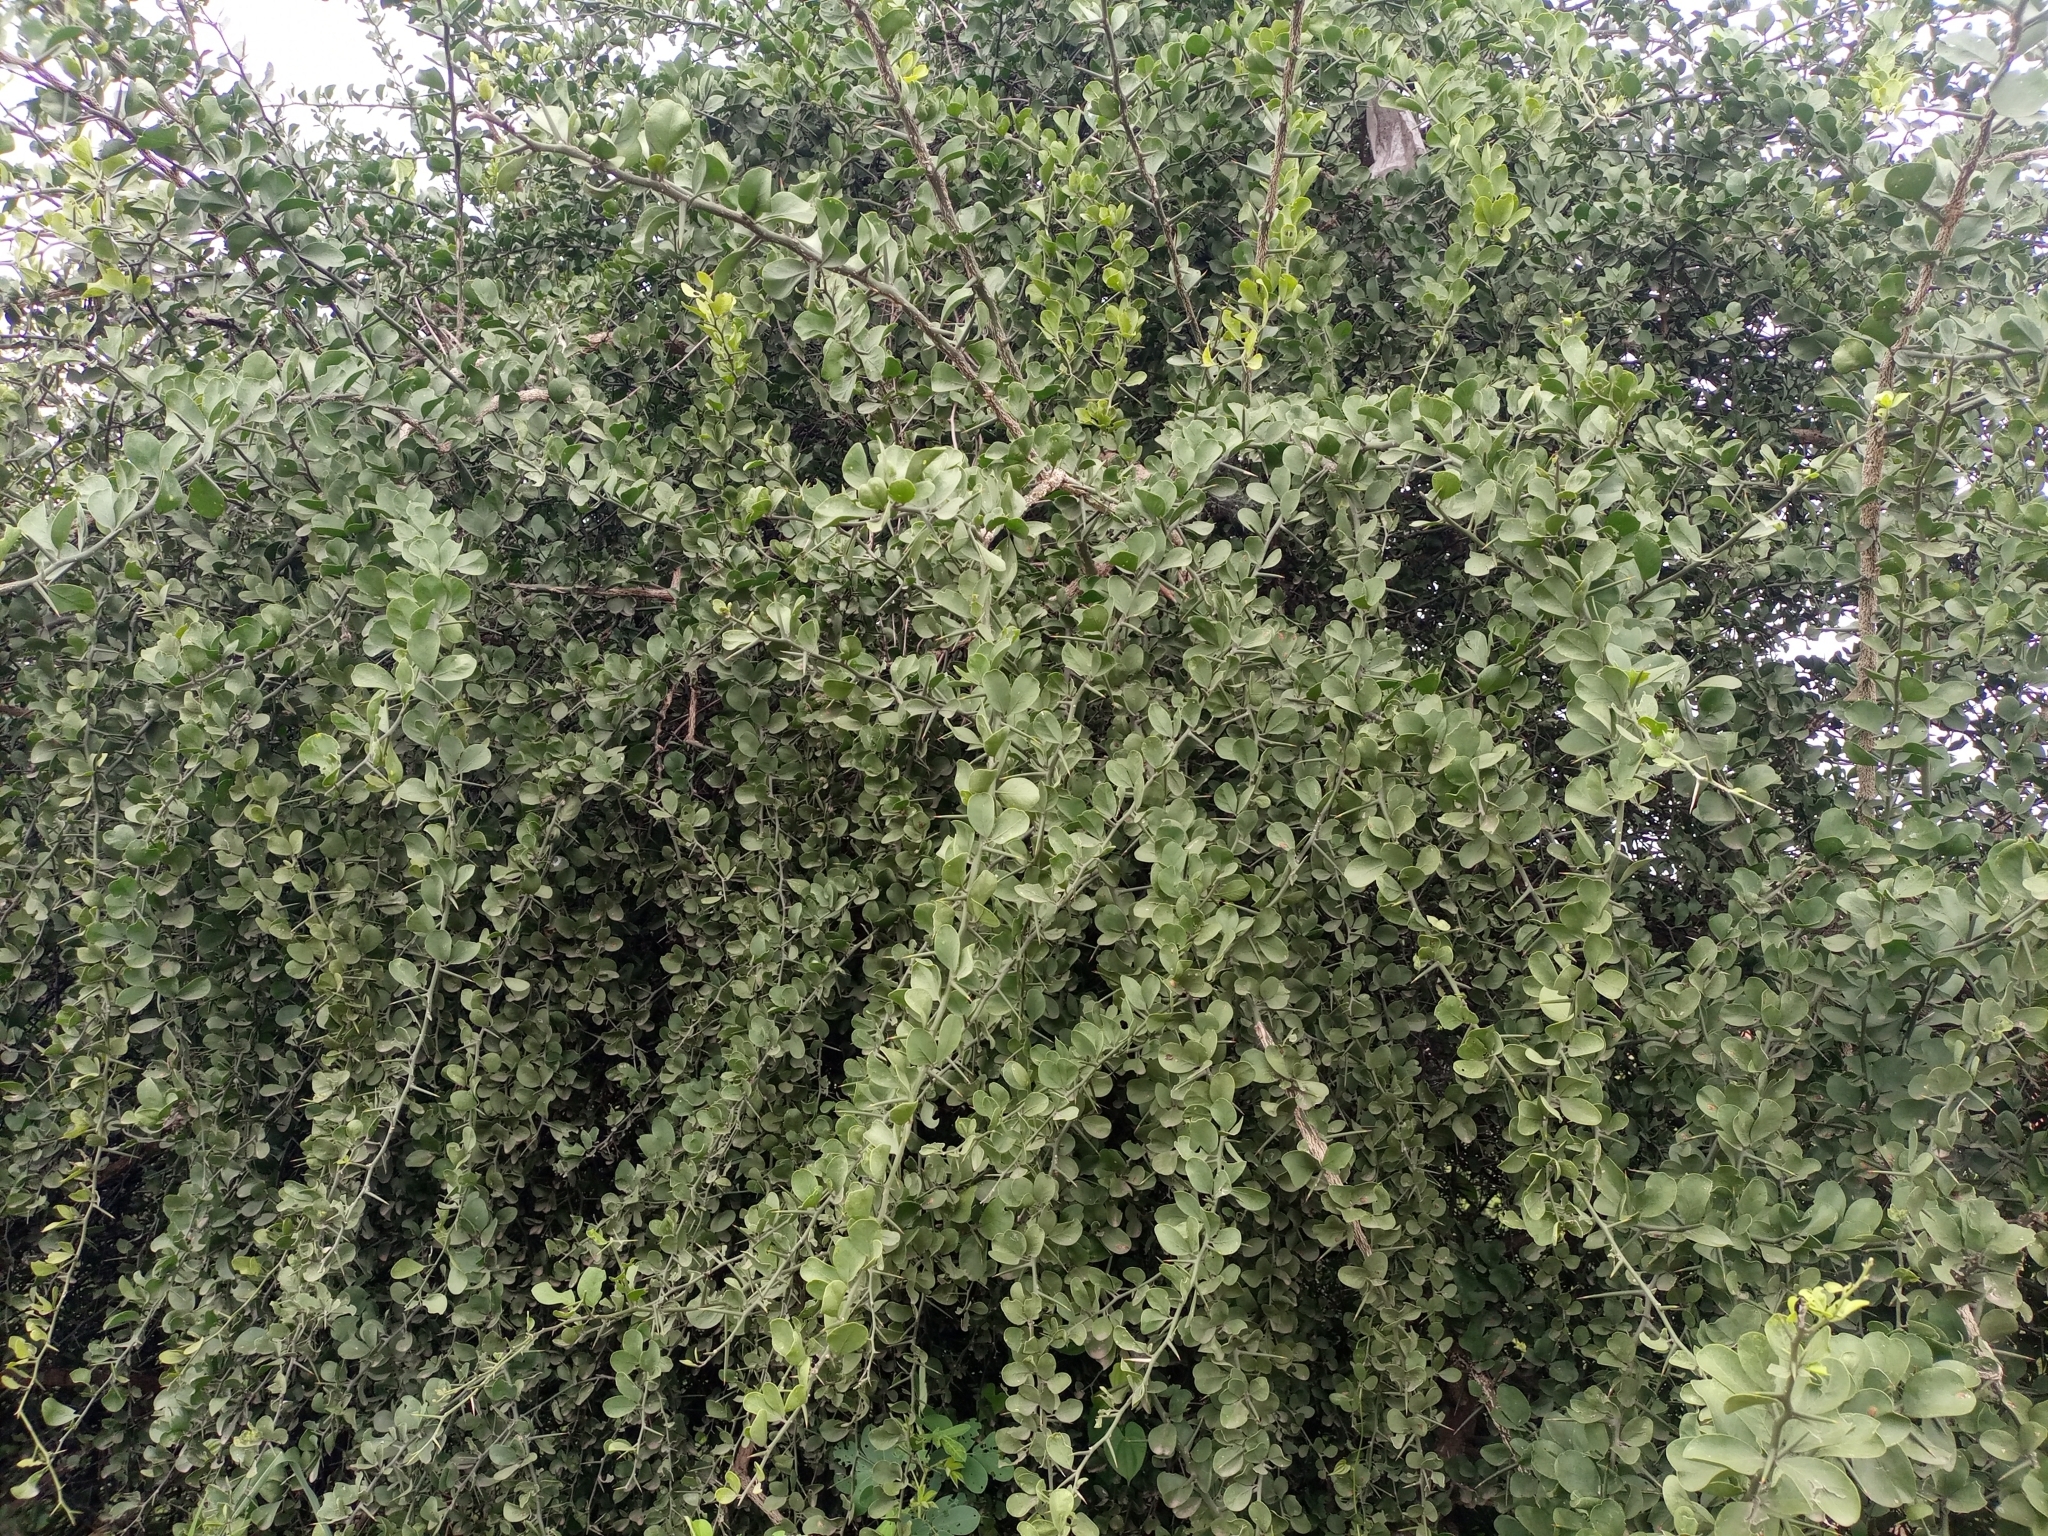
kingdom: Plantae
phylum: Tracheophyta
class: Magnoliopsida
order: Zygophyllales
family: Zygophyllaceae
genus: Balanites
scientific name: Balanites aegyptiaca
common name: Balanites
